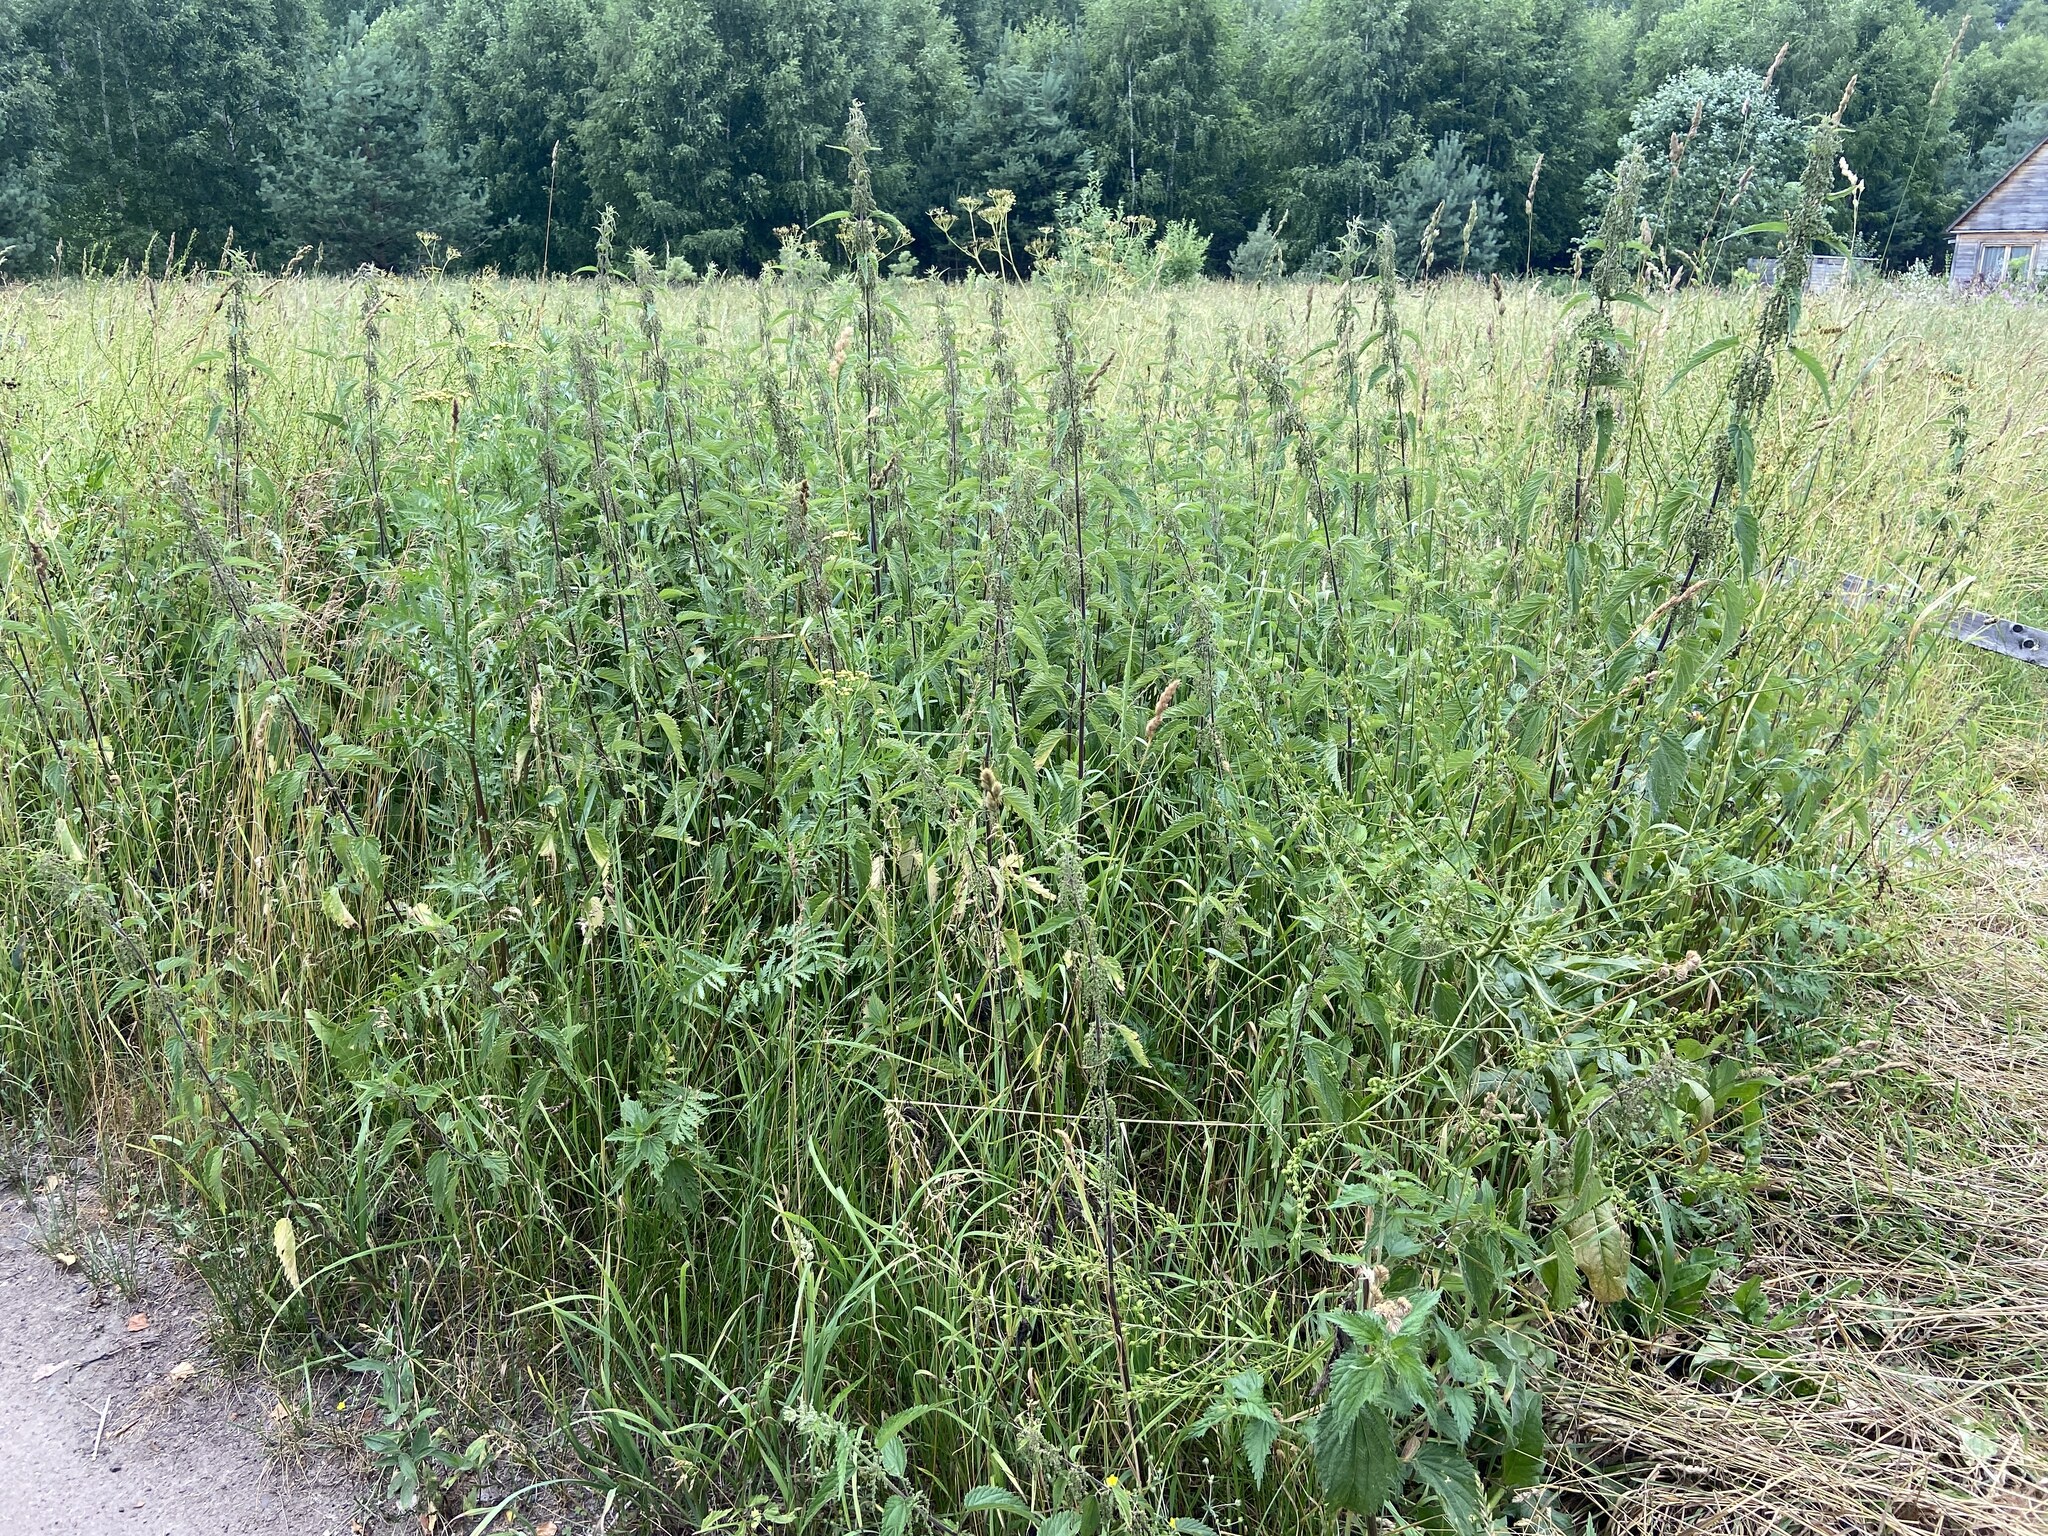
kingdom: Plantae
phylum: Tracheophyta
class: Magnoliopsida
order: Rosales
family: Urticaceae
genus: Urtica
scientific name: Urtica dioica
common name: Common nettle
